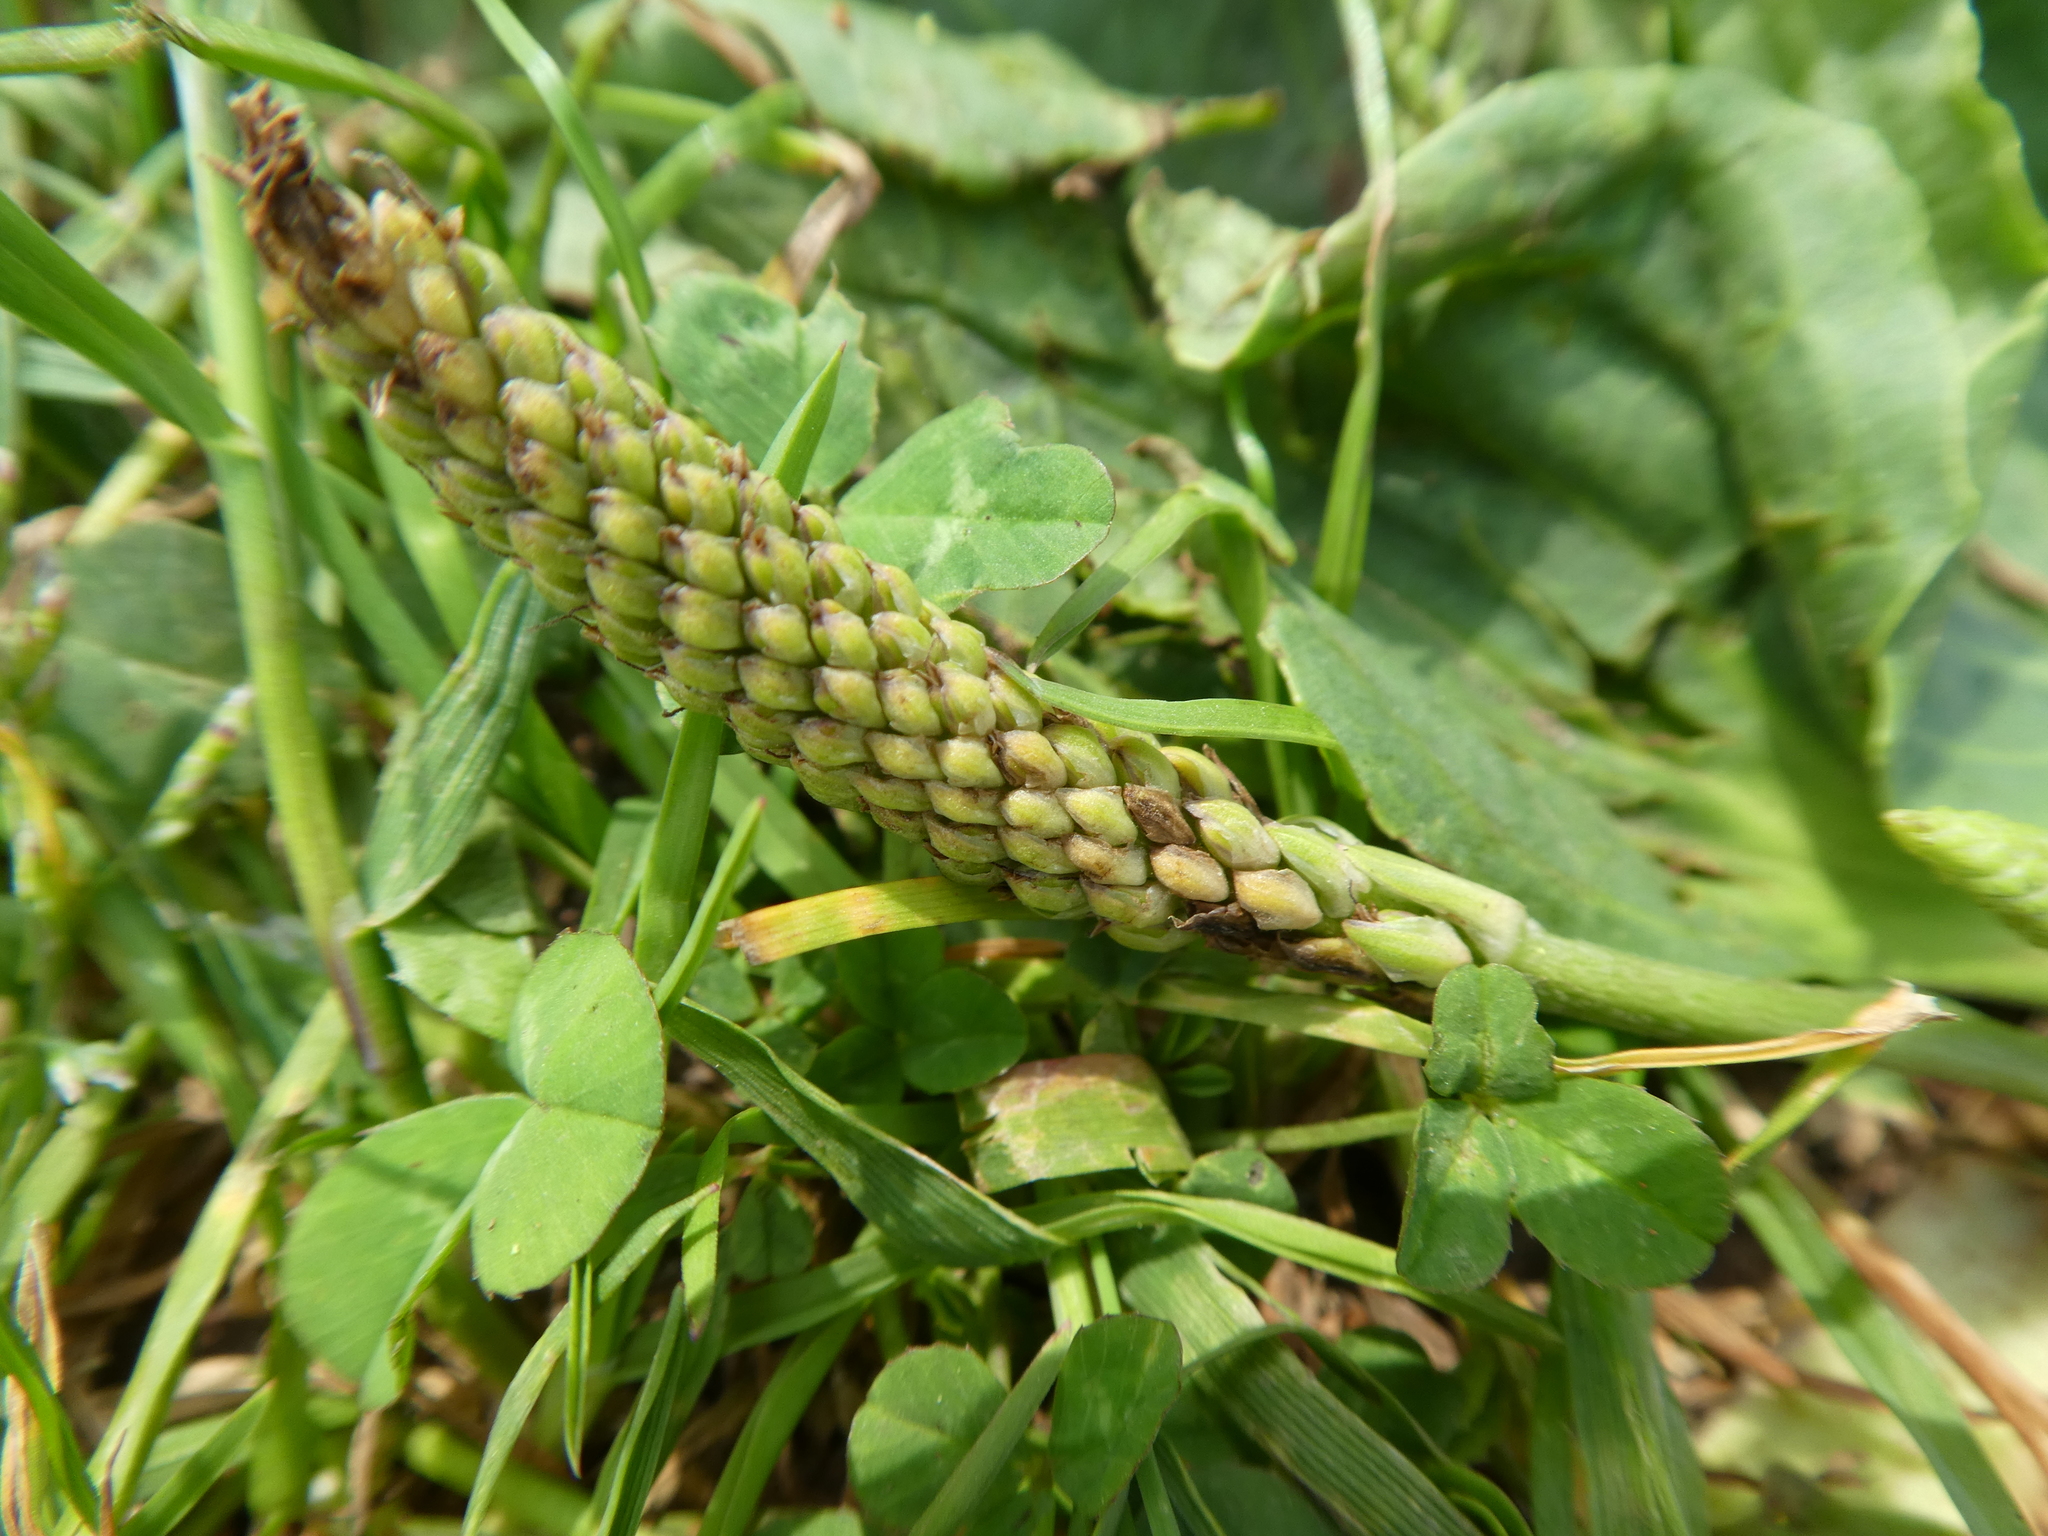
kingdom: Plantae
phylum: Tracheophyta
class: Magnoliopsida
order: Lamiales
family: Plantaginaceae
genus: Plantago
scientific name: Plantago major
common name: Common plantain
